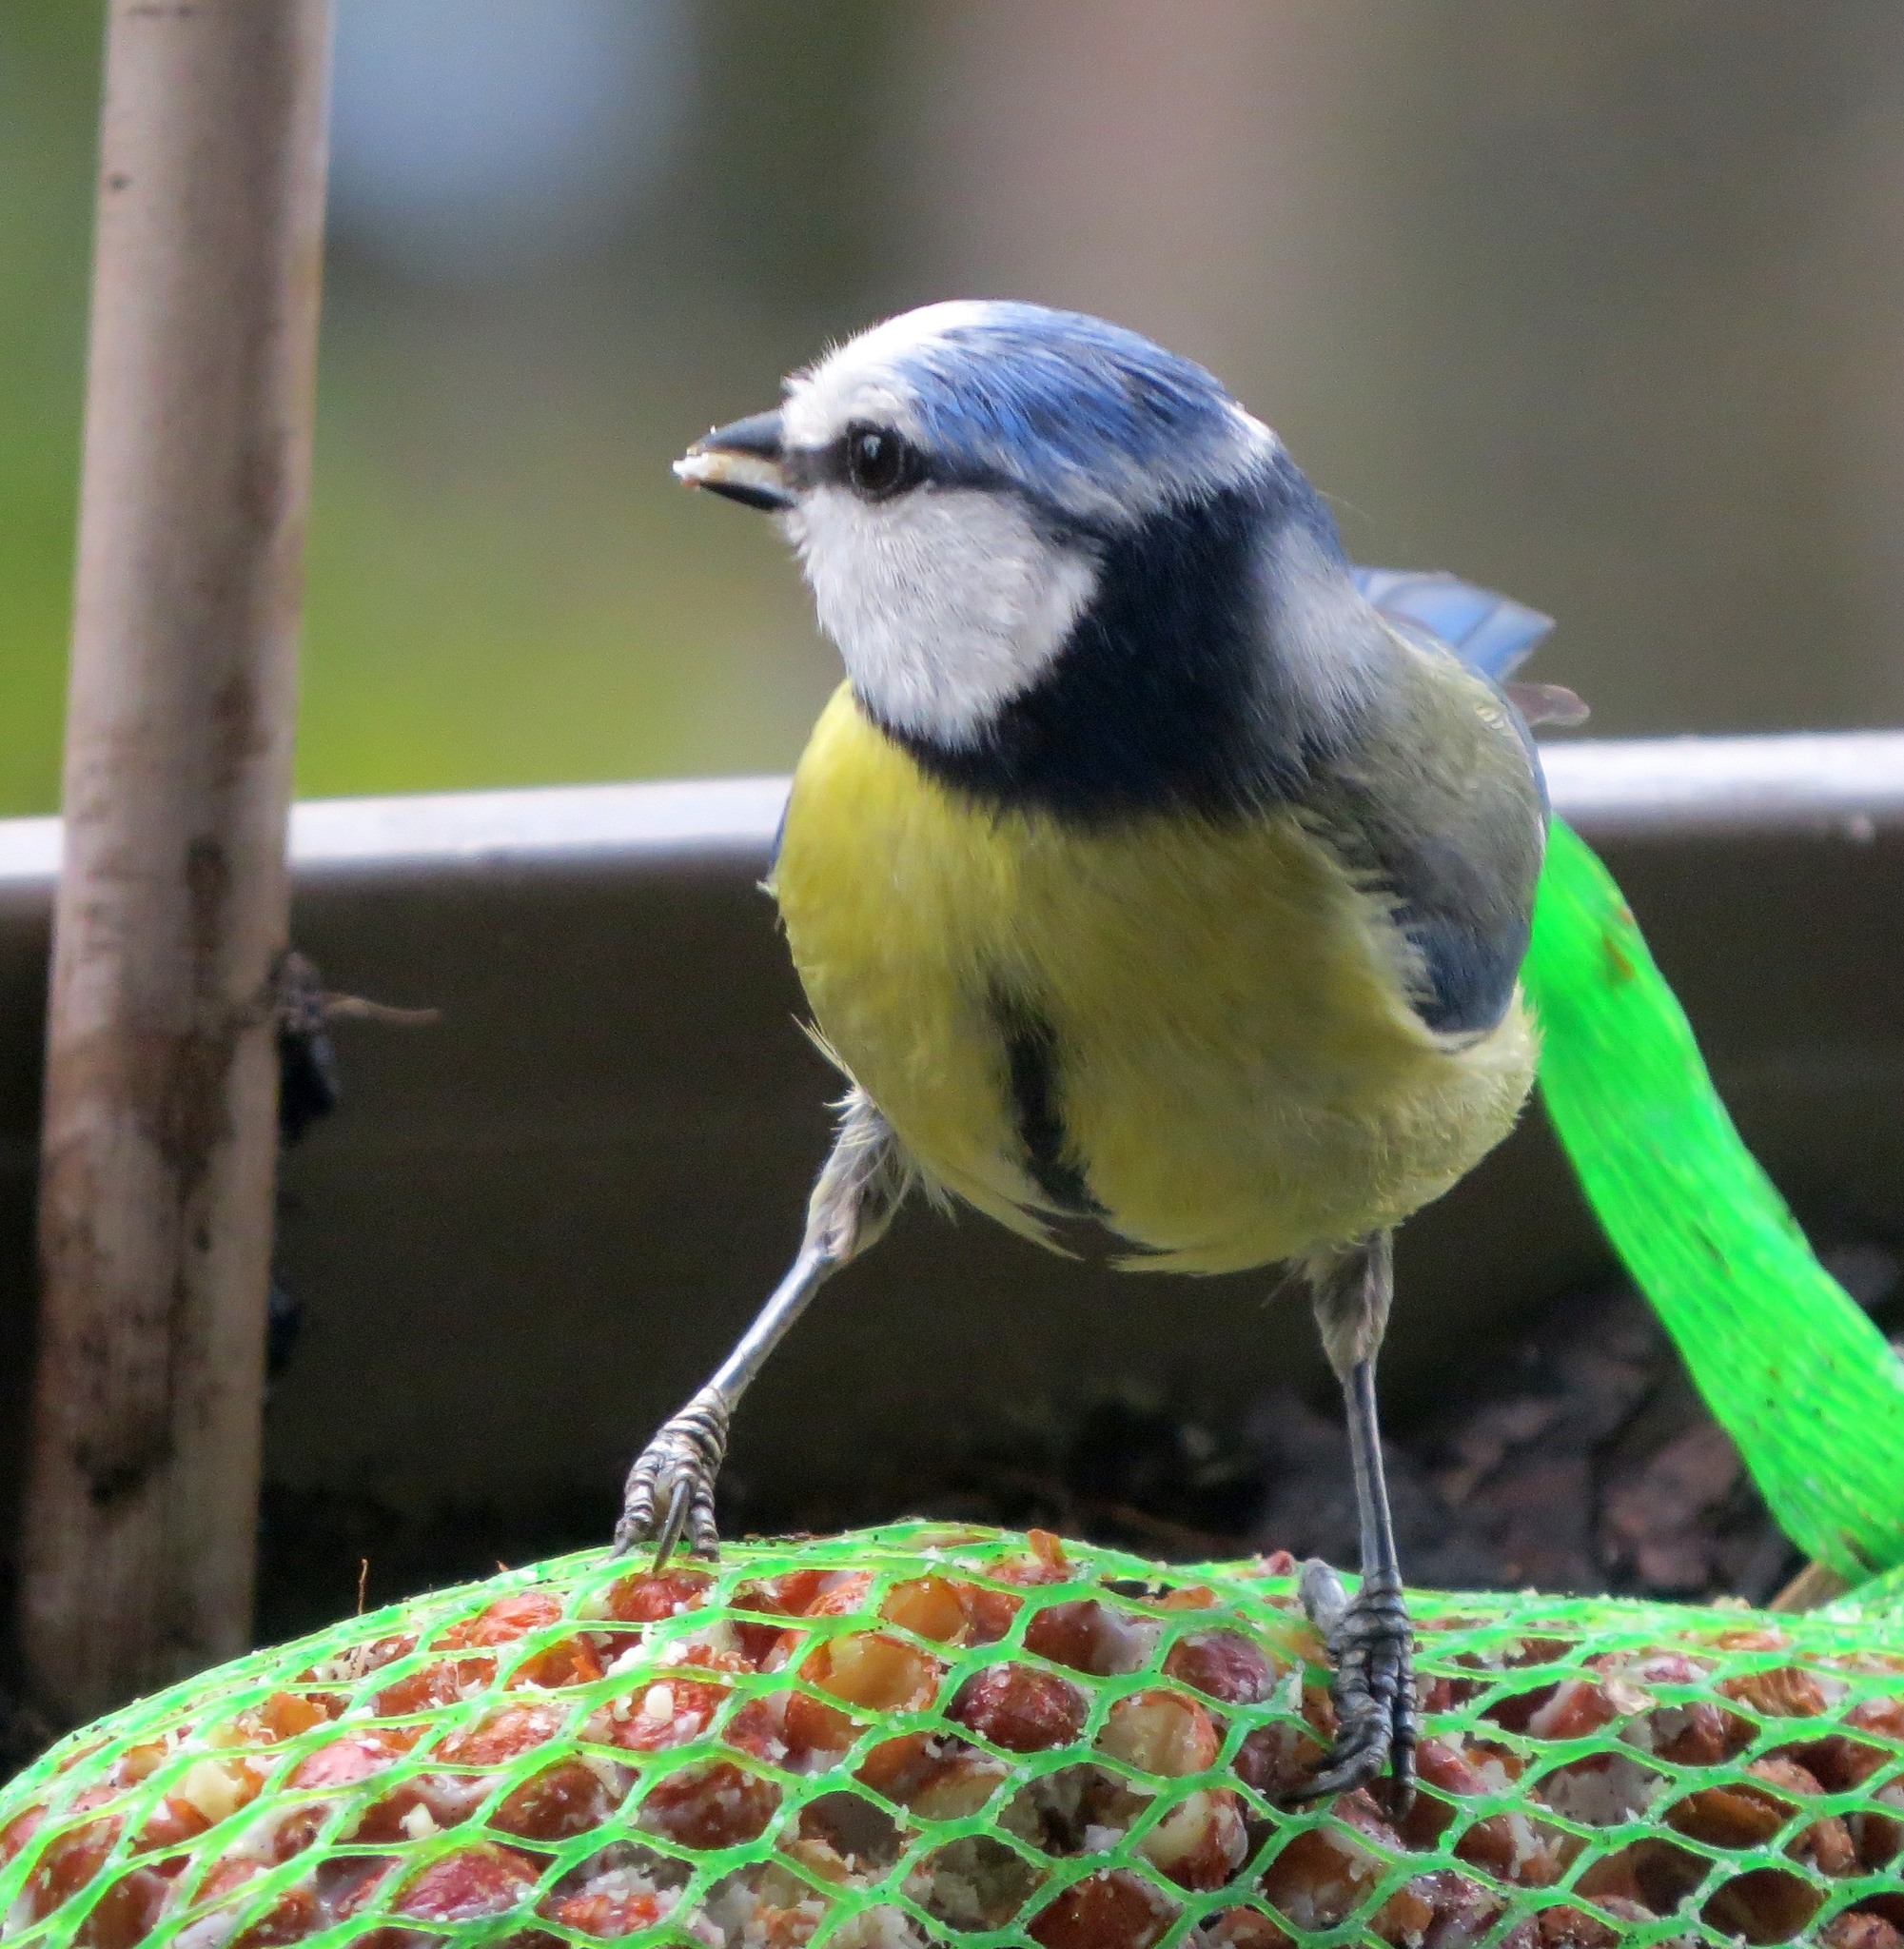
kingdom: Animalia
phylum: Chordata
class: Aves
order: Passeriformes
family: Paridae
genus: Cyanistes
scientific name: Cyanistes caeruleus
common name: Eurasian blue tit
